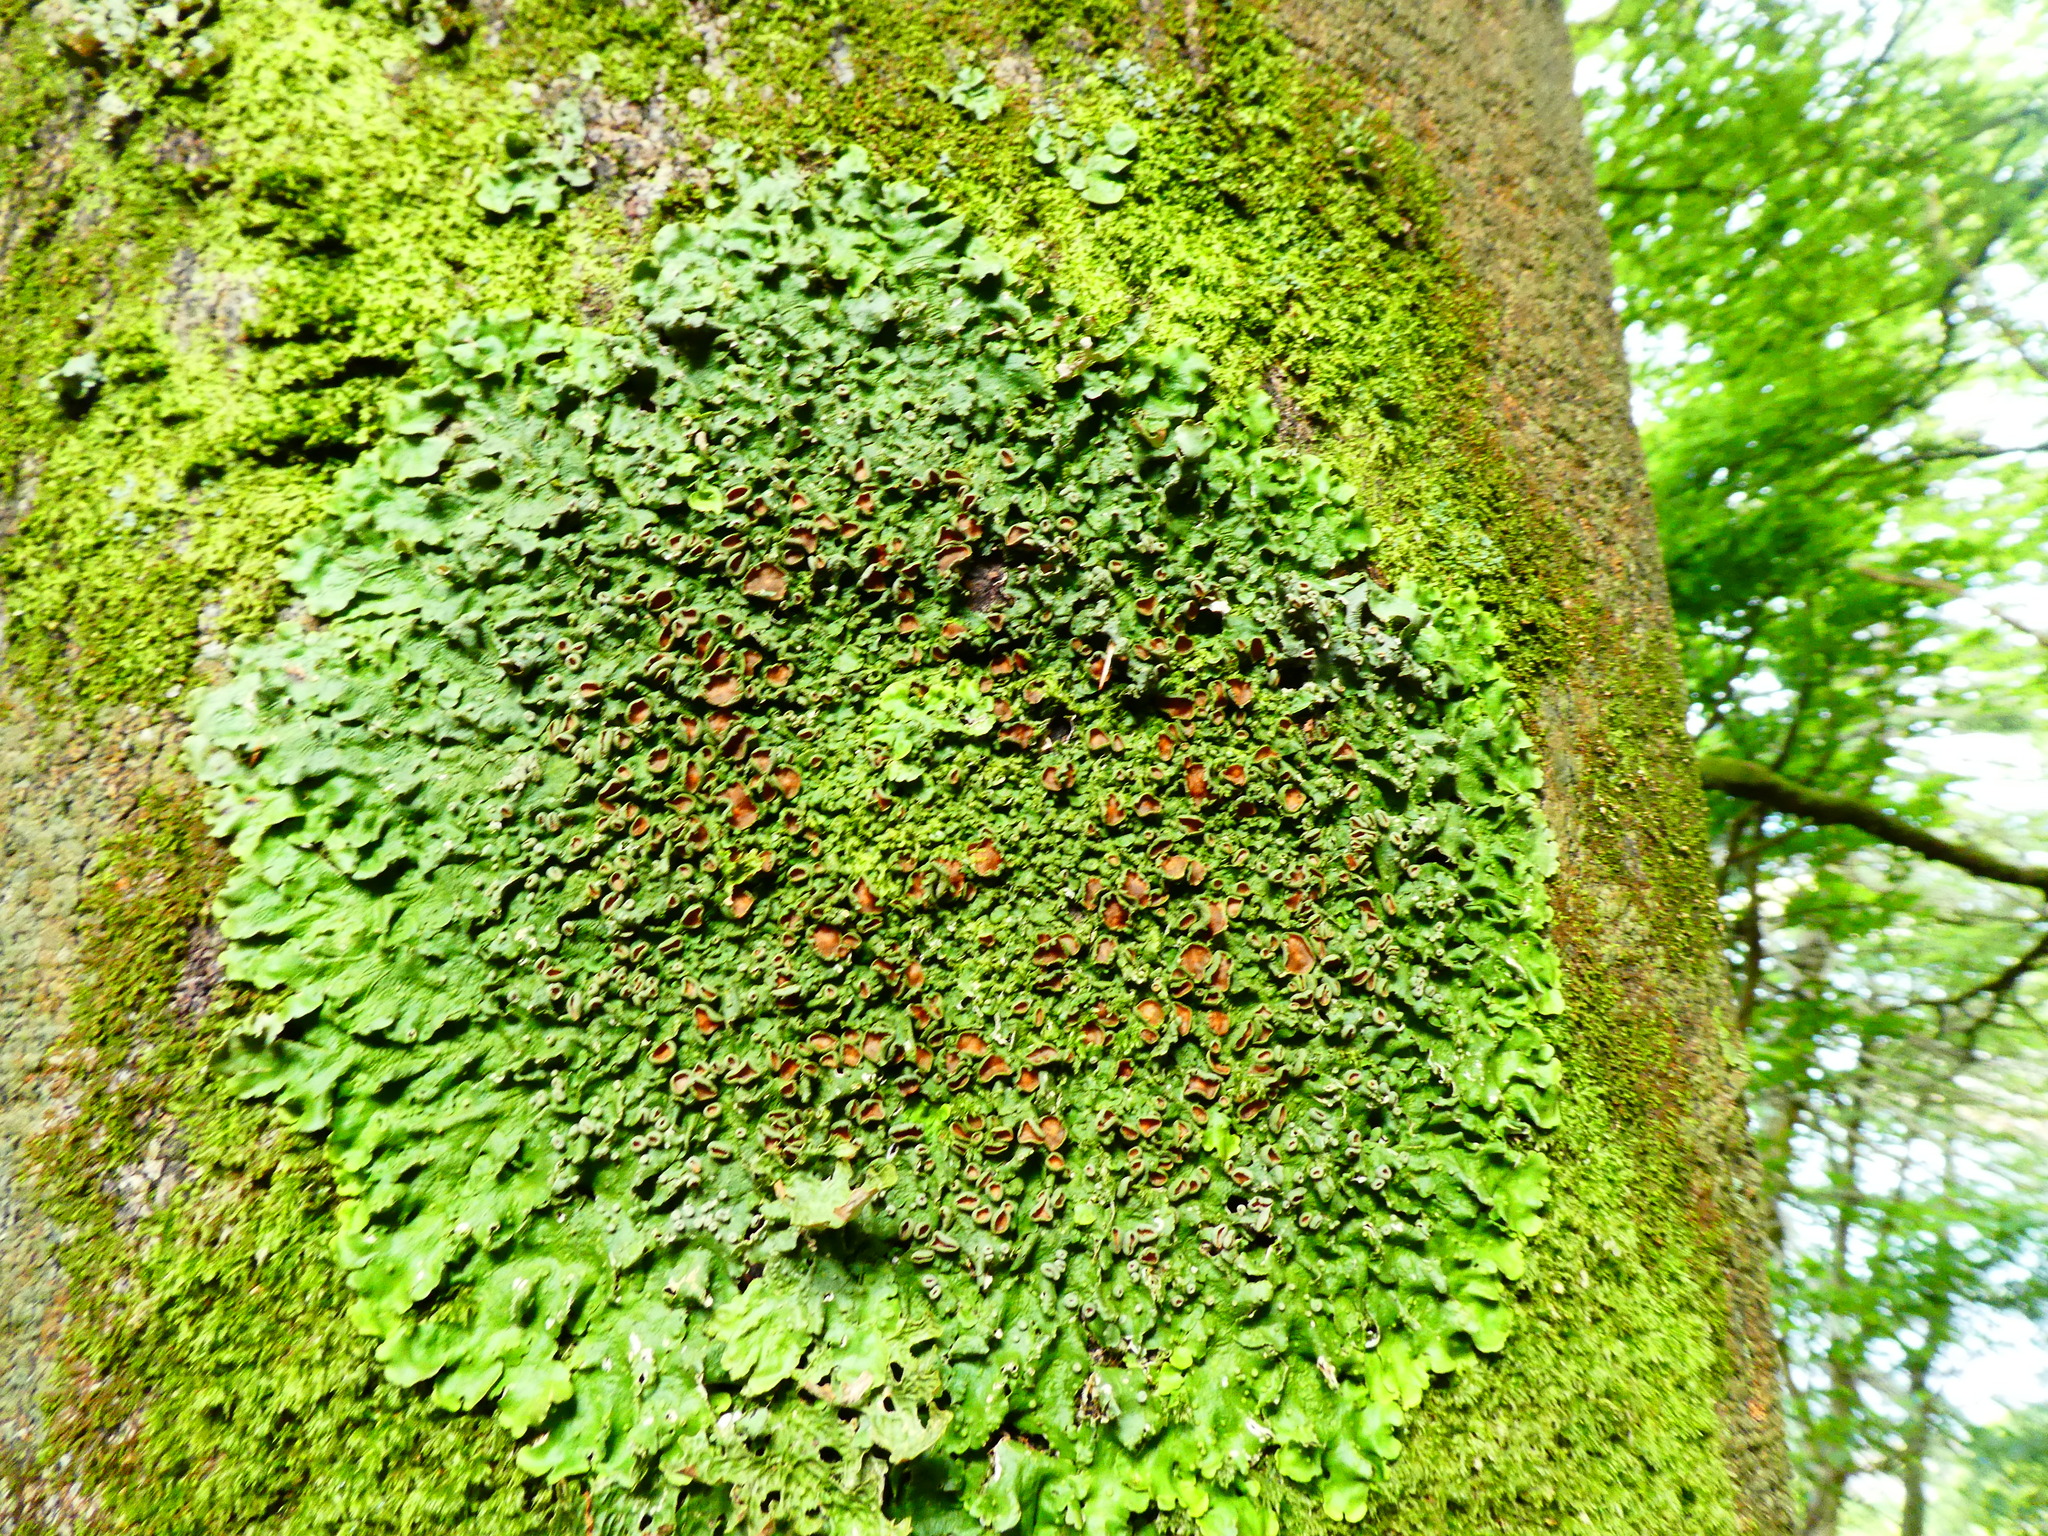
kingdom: Fungi
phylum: Ascomycota
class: Lecanoromycetes
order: Peltigerales
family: Lobariaceae
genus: Ricasolia
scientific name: Ricasolia virens
